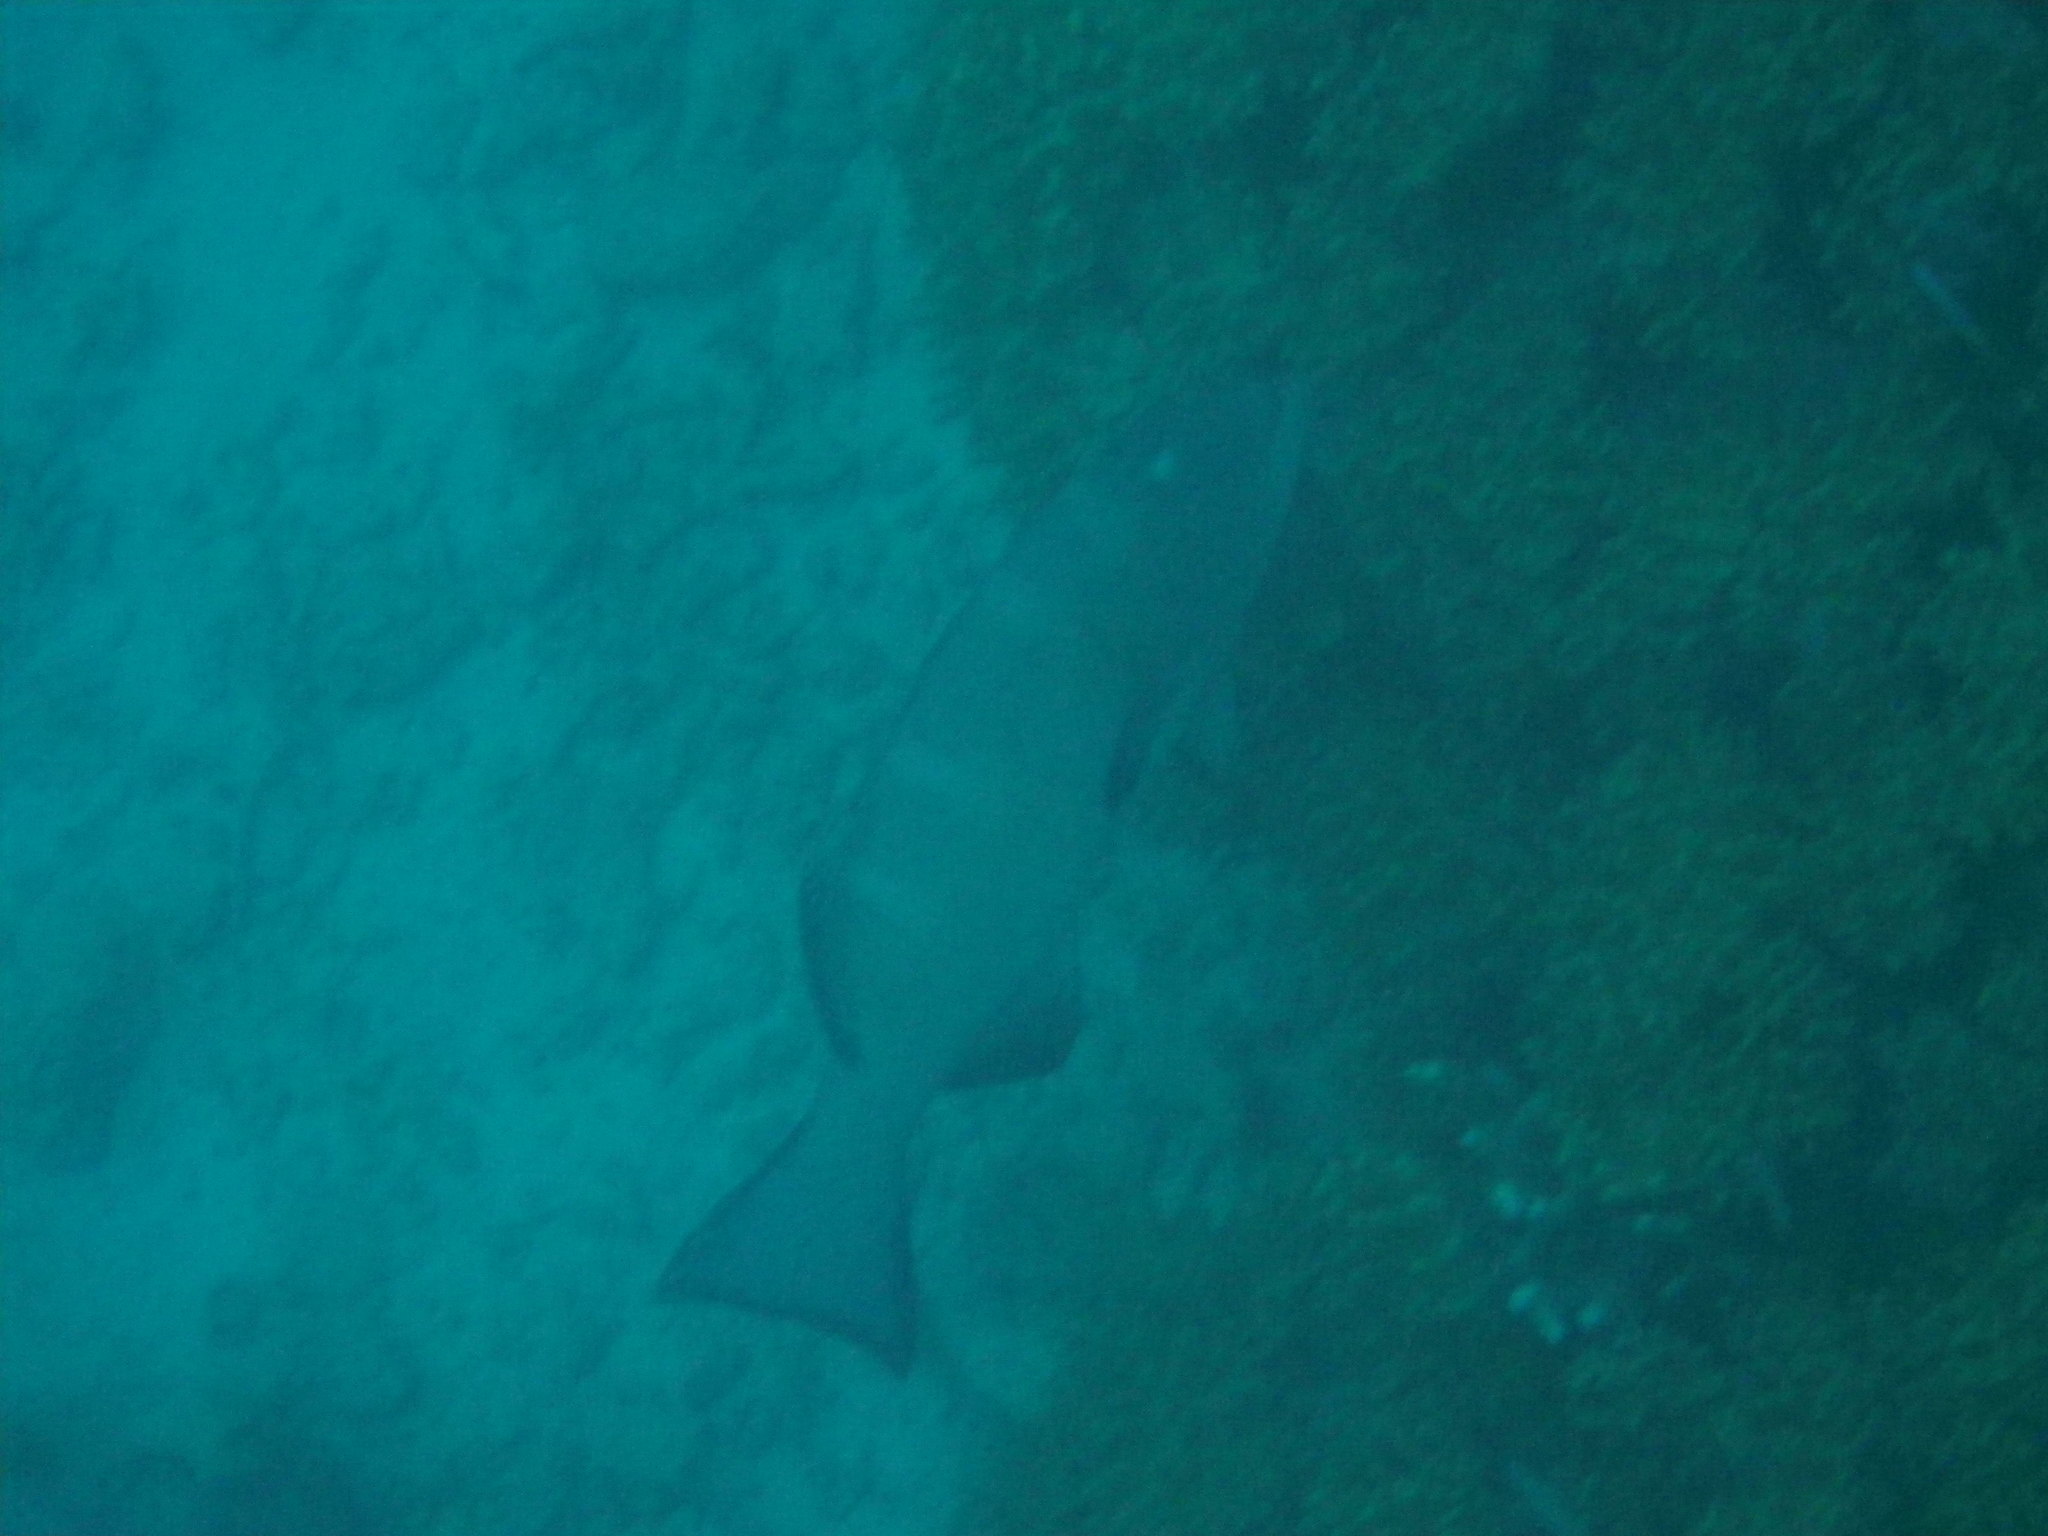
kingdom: Animalia
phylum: Chordata
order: Perciformes
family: Serranidae
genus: Plectropomus
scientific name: Plectropomus laevis
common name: Chinese footballer
